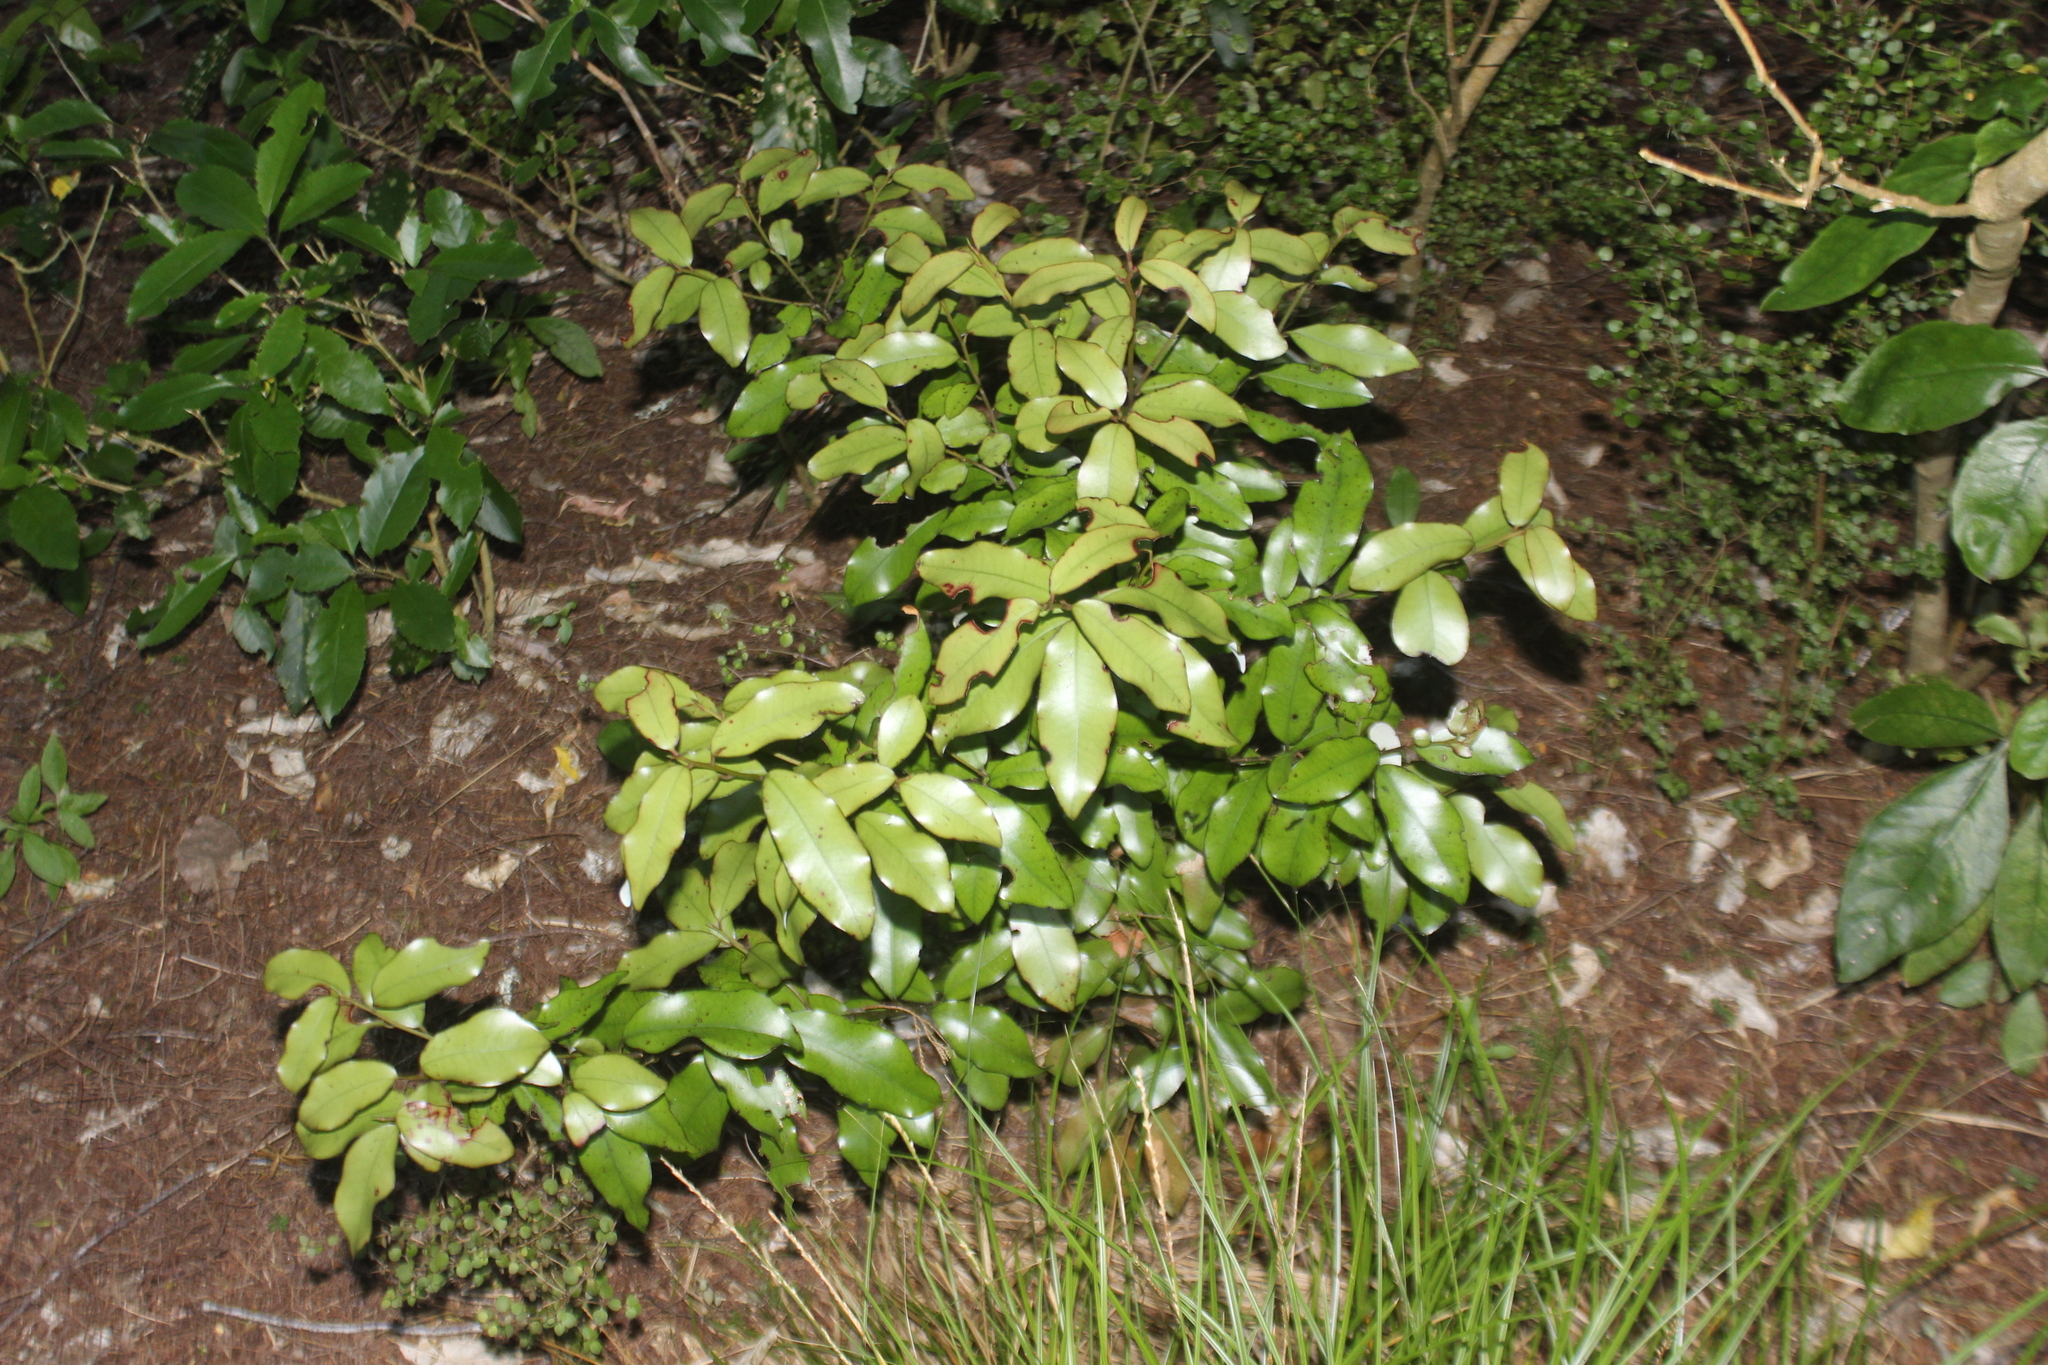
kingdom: Plantae
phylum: Tracheophyta
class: Magnoliopsida
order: Canellales
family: Winteraceae
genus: Pseudowintera
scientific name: Pseudowintera colorata
